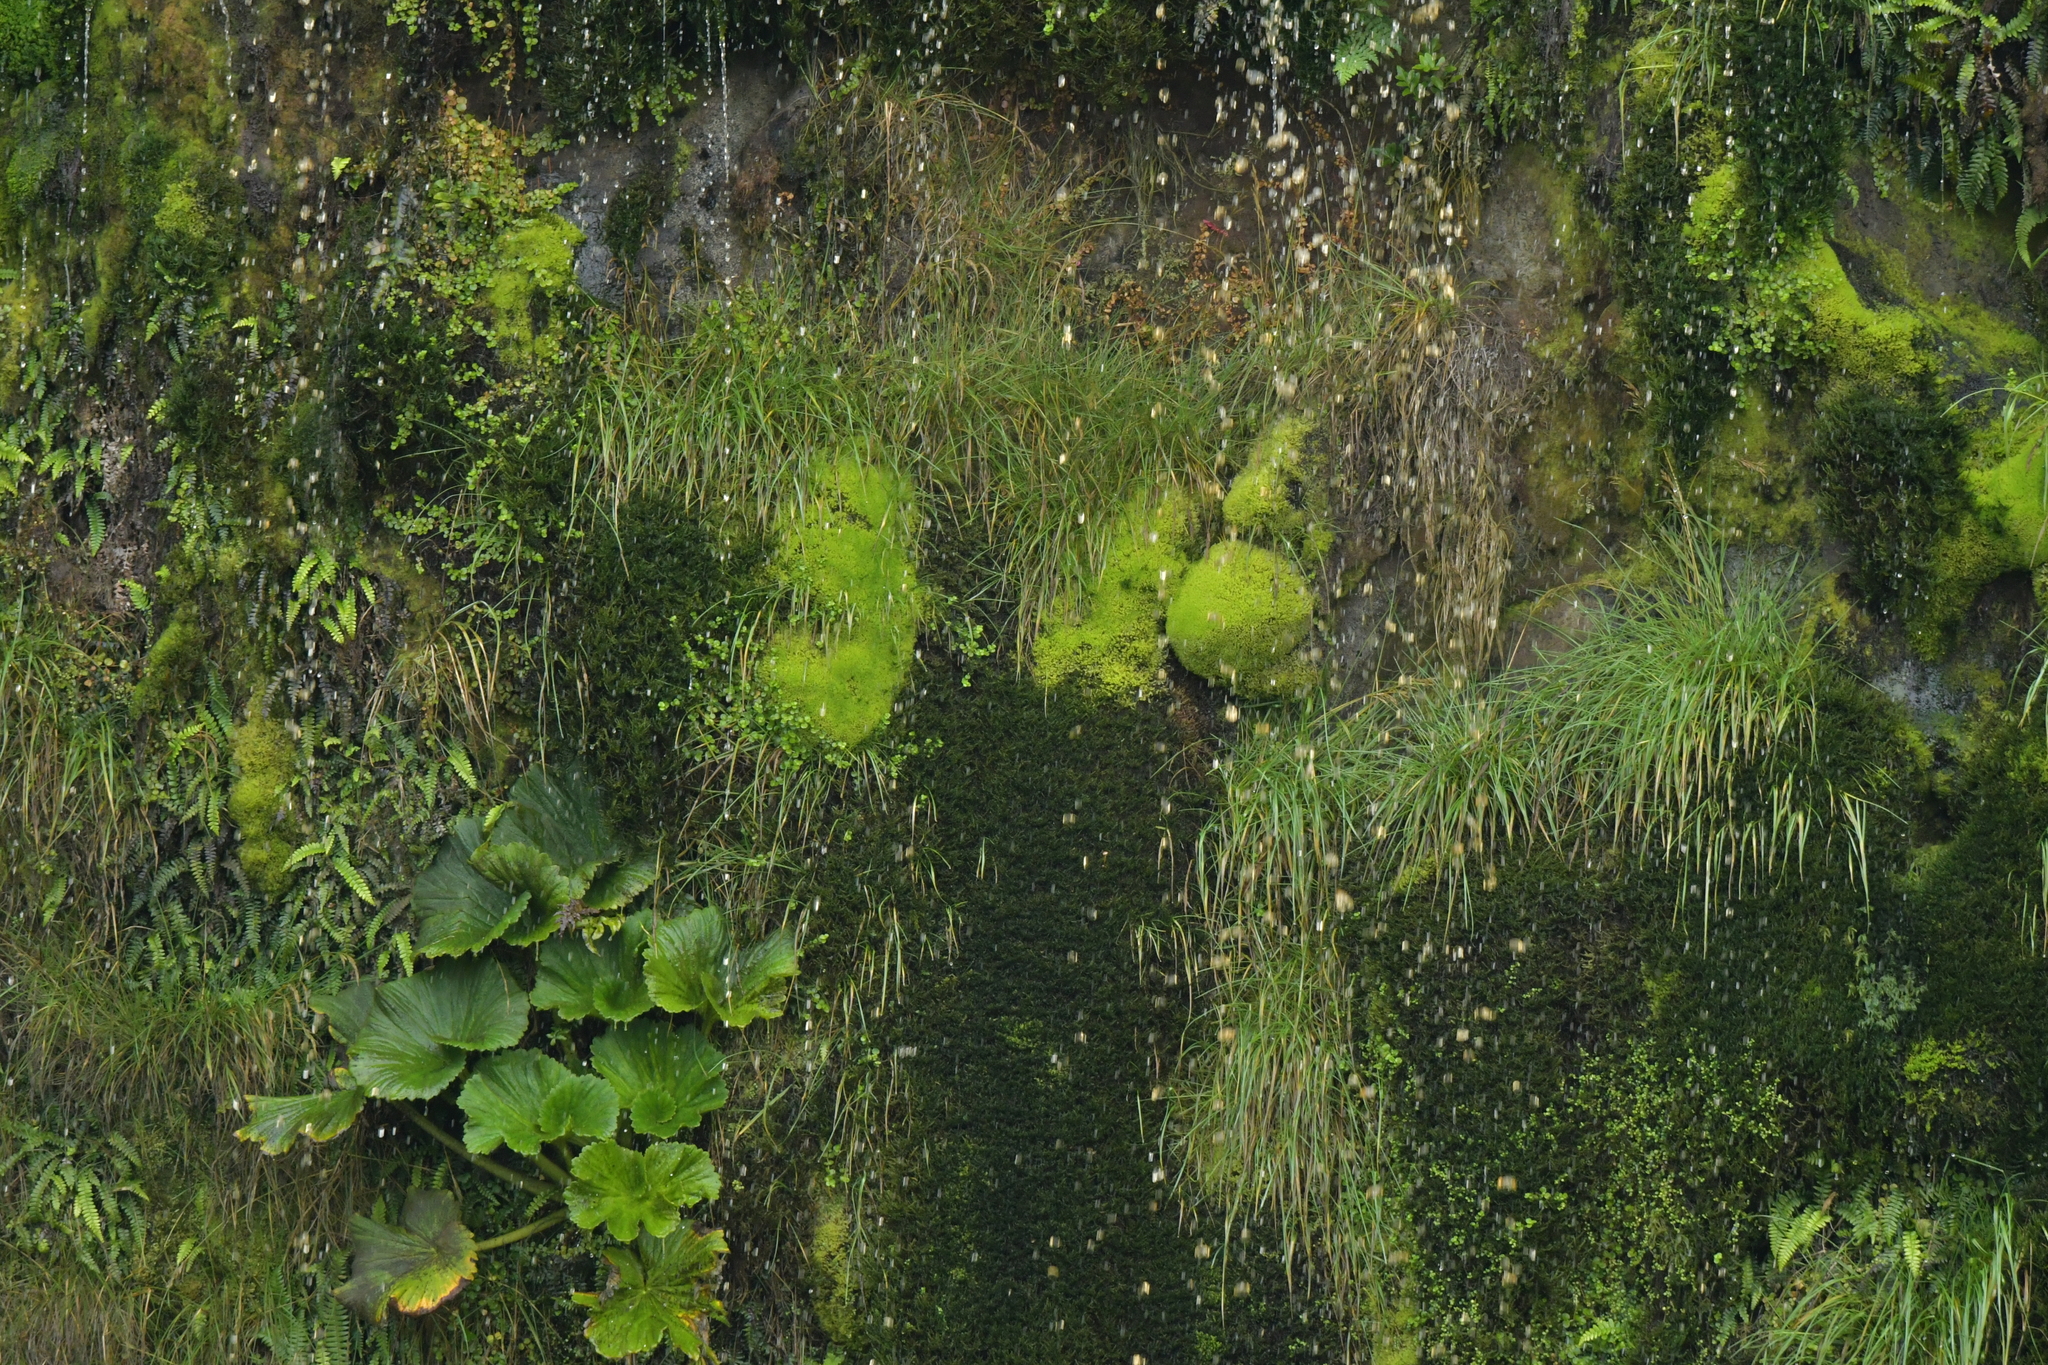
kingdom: Plantae
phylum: Tracheophyta
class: Magnoliopsida
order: Myrtales
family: Onagraceae
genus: Epilobium
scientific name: Epilobium pedunculare
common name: Rockery willowherb
